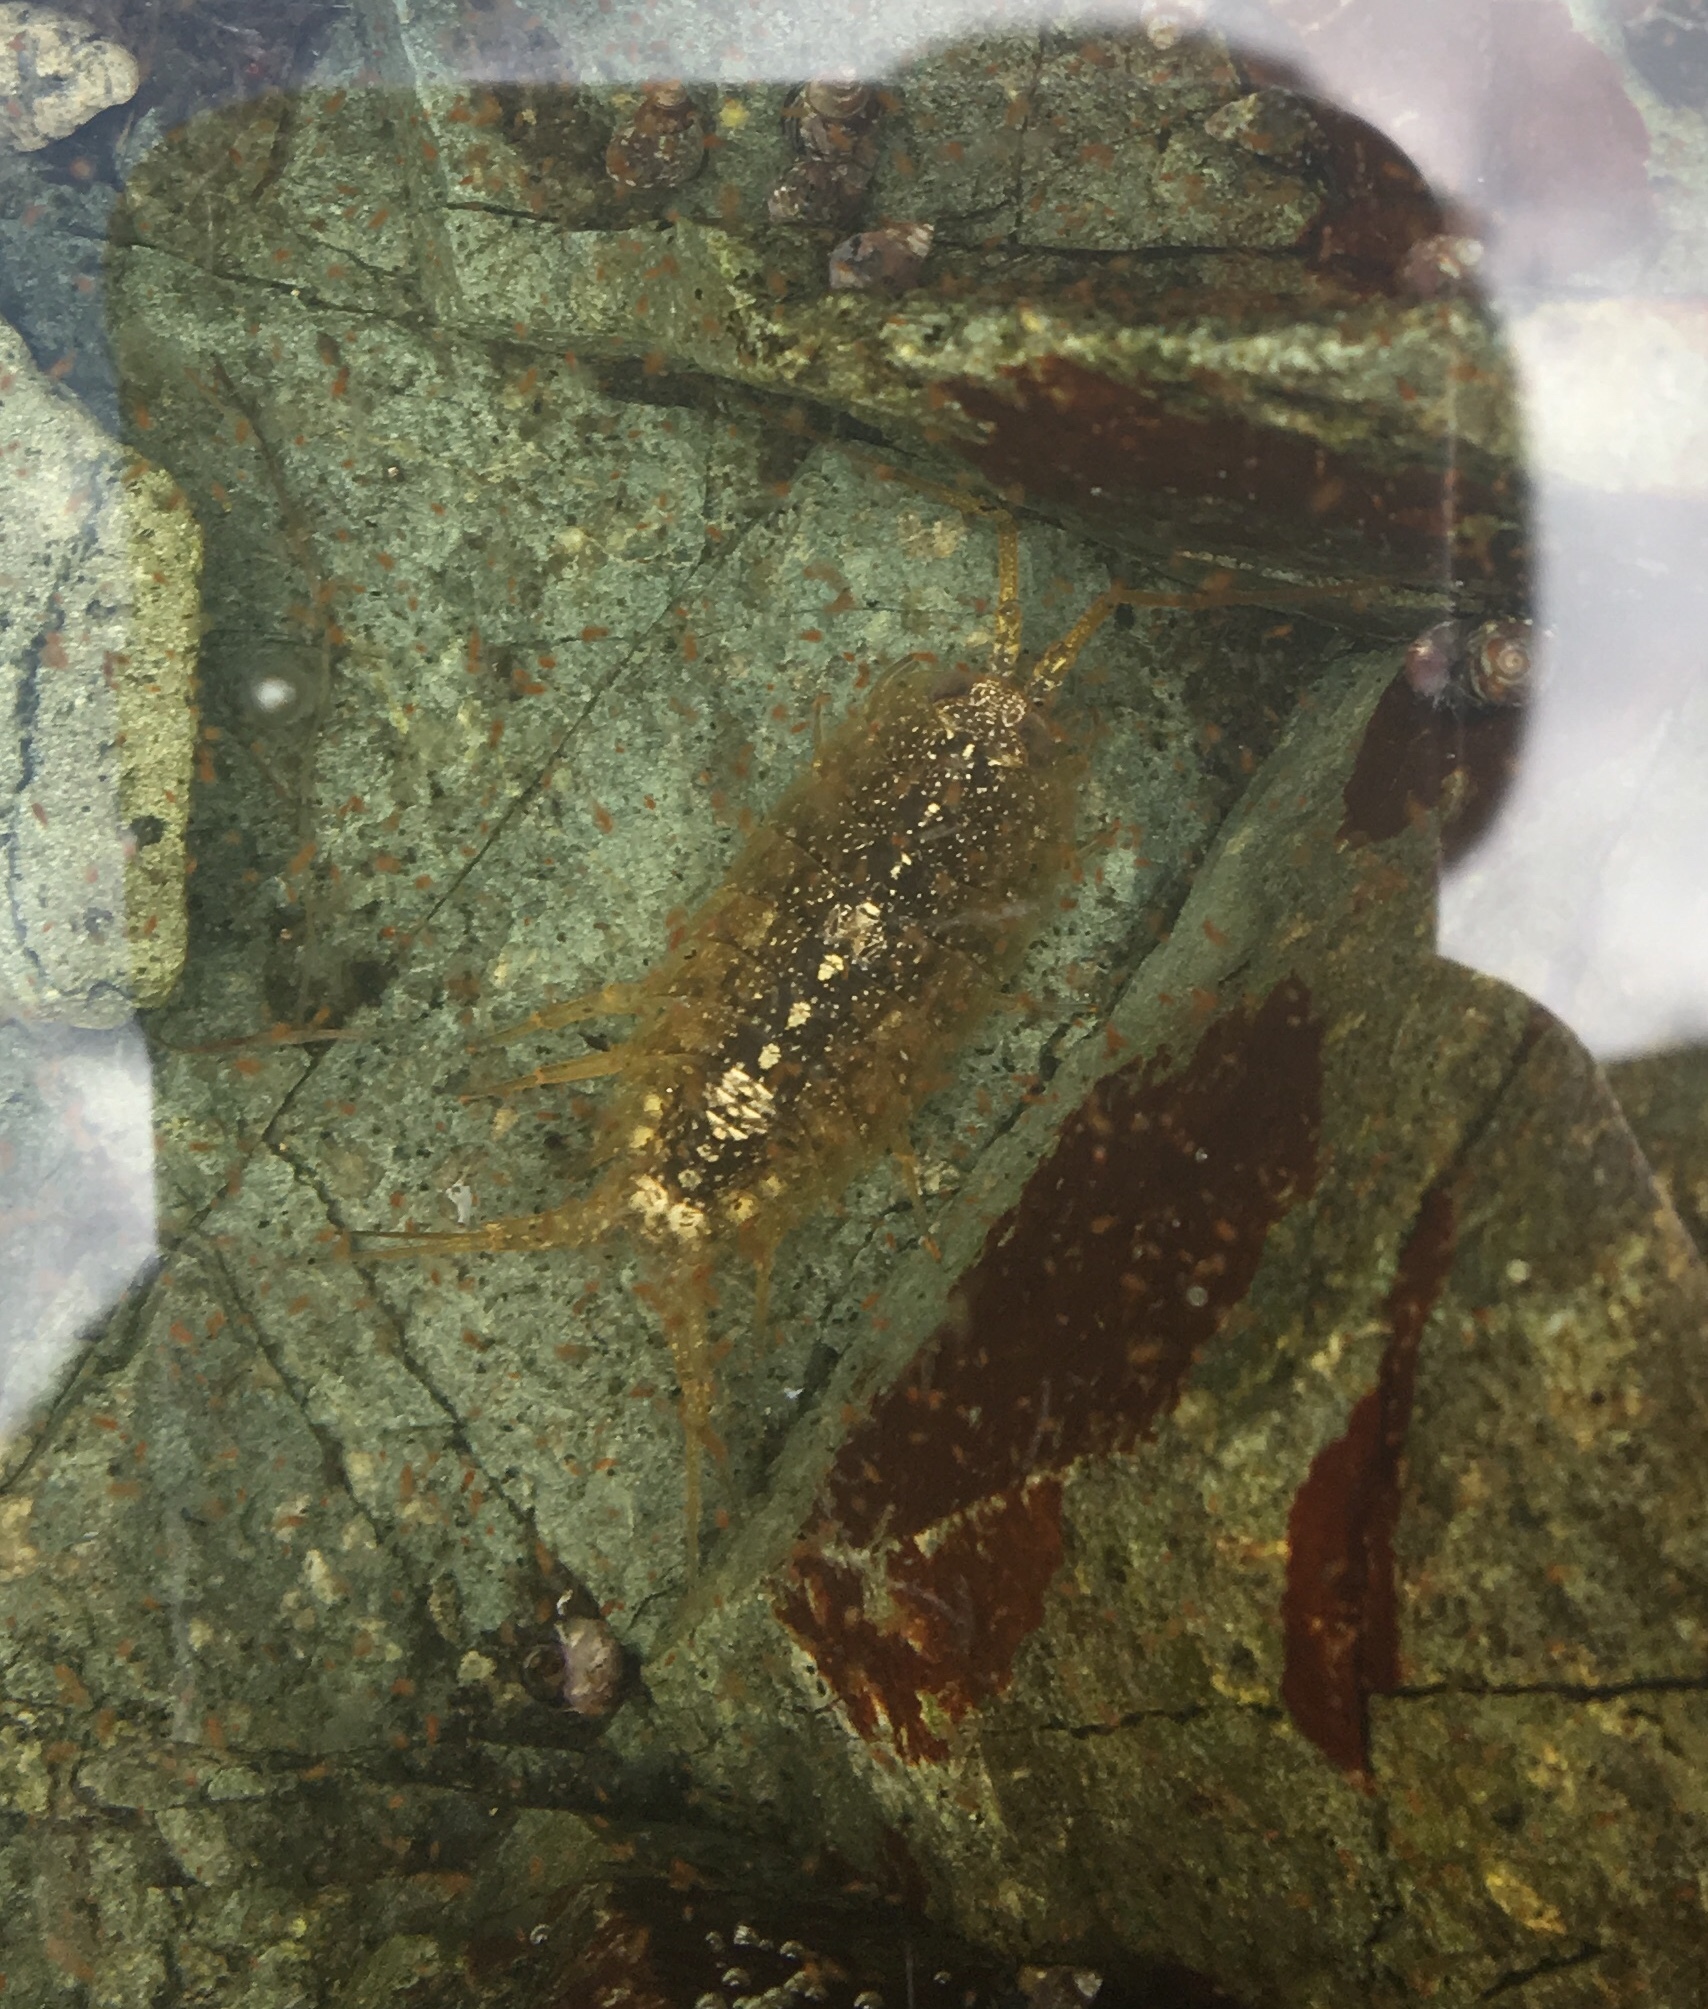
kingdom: Animalia
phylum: Arthropoda
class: Malacostraca
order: Isopoda
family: Ligiidae
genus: Ligia
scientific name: Ligia occidentalis
